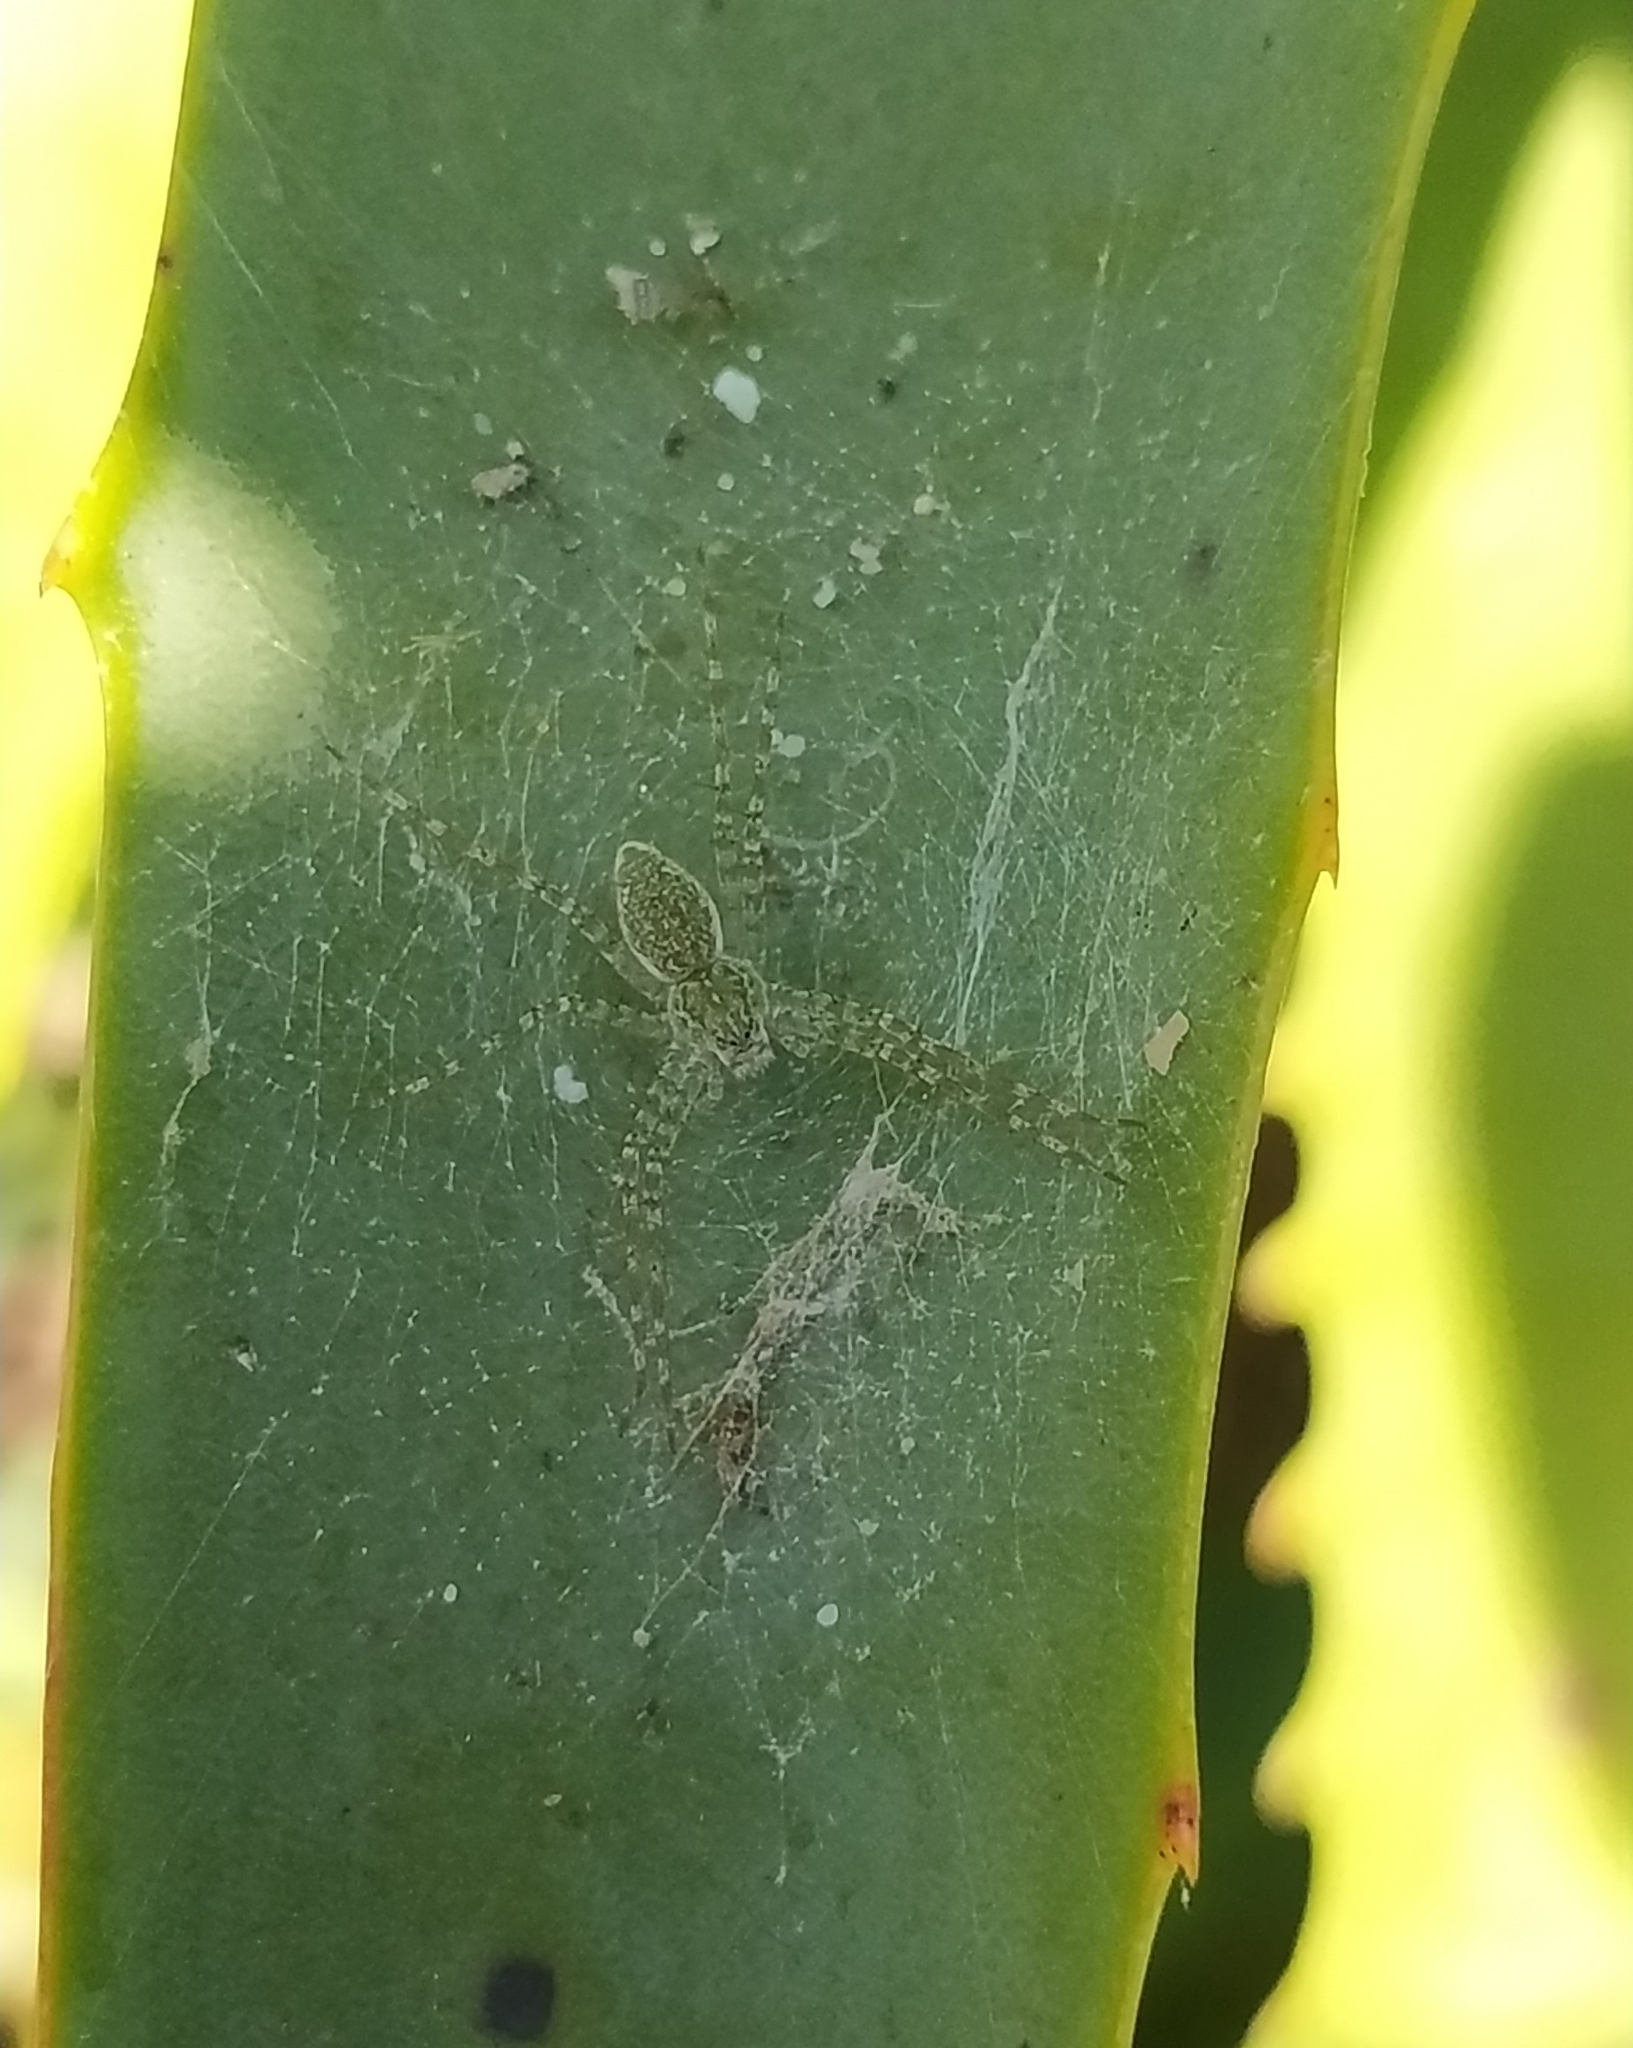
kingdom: Animalia
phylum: Arthropoda
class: Arachnida
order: Araneae
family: Pisauridae
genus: Thaumasia
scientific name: Thaumasia velox
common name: Nursery web spiders
